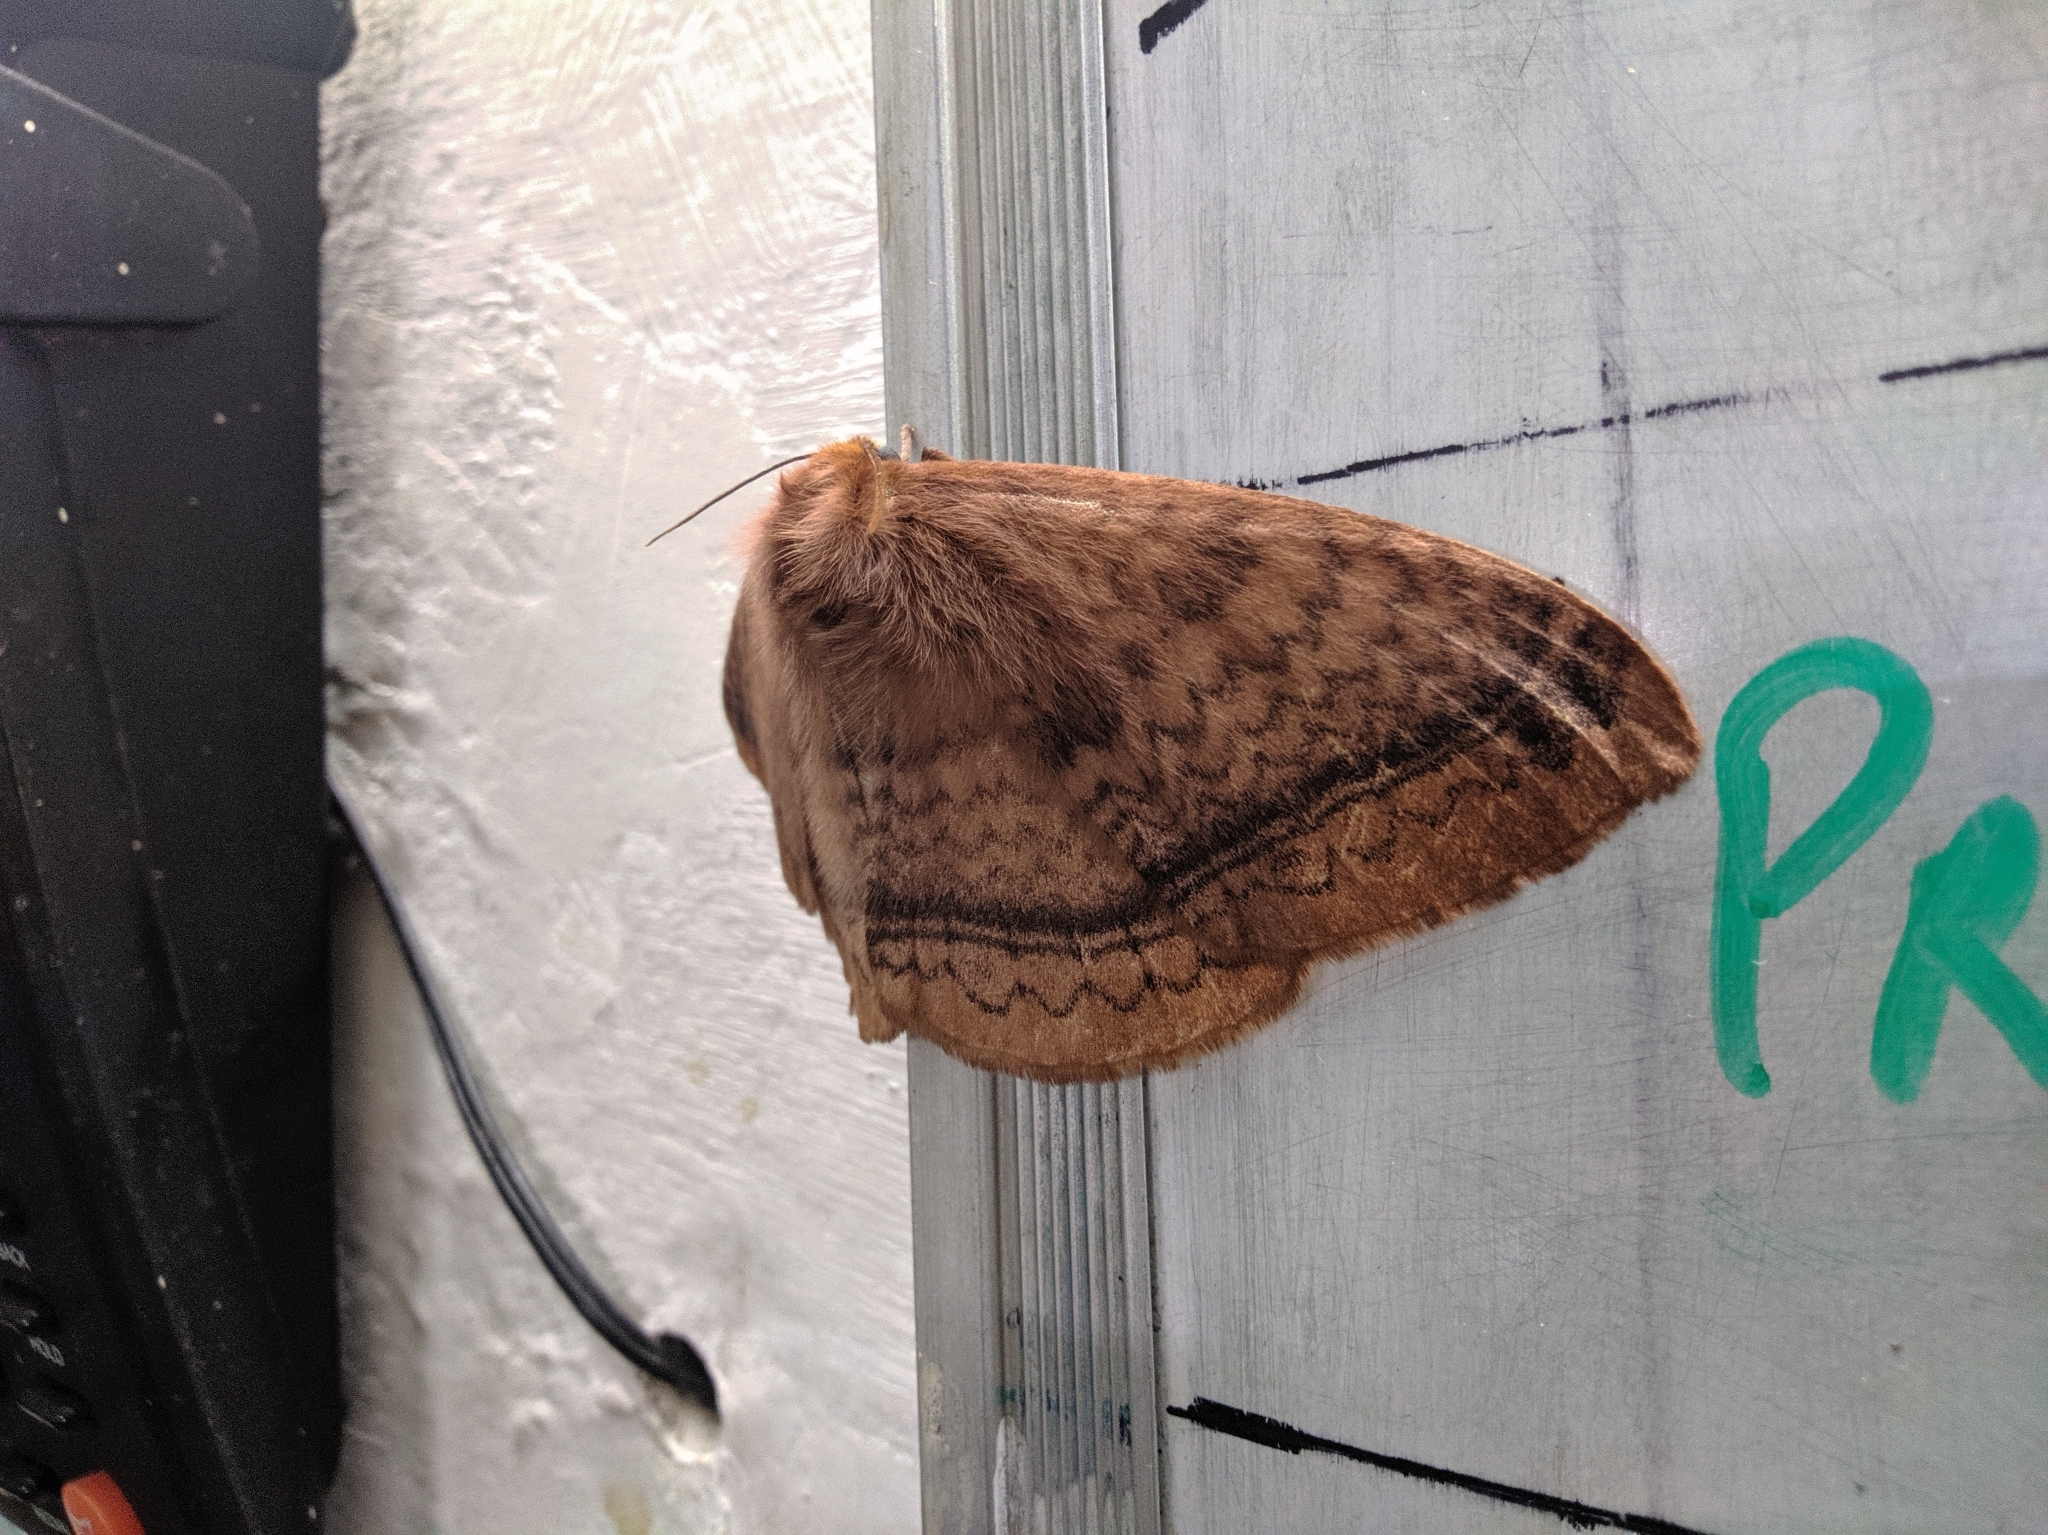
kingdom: Animalia
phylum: Arthropoda
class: Insecta
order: Lepidoptera
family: Eupterotidae
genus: Eupterote
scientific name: Eupterote undata
